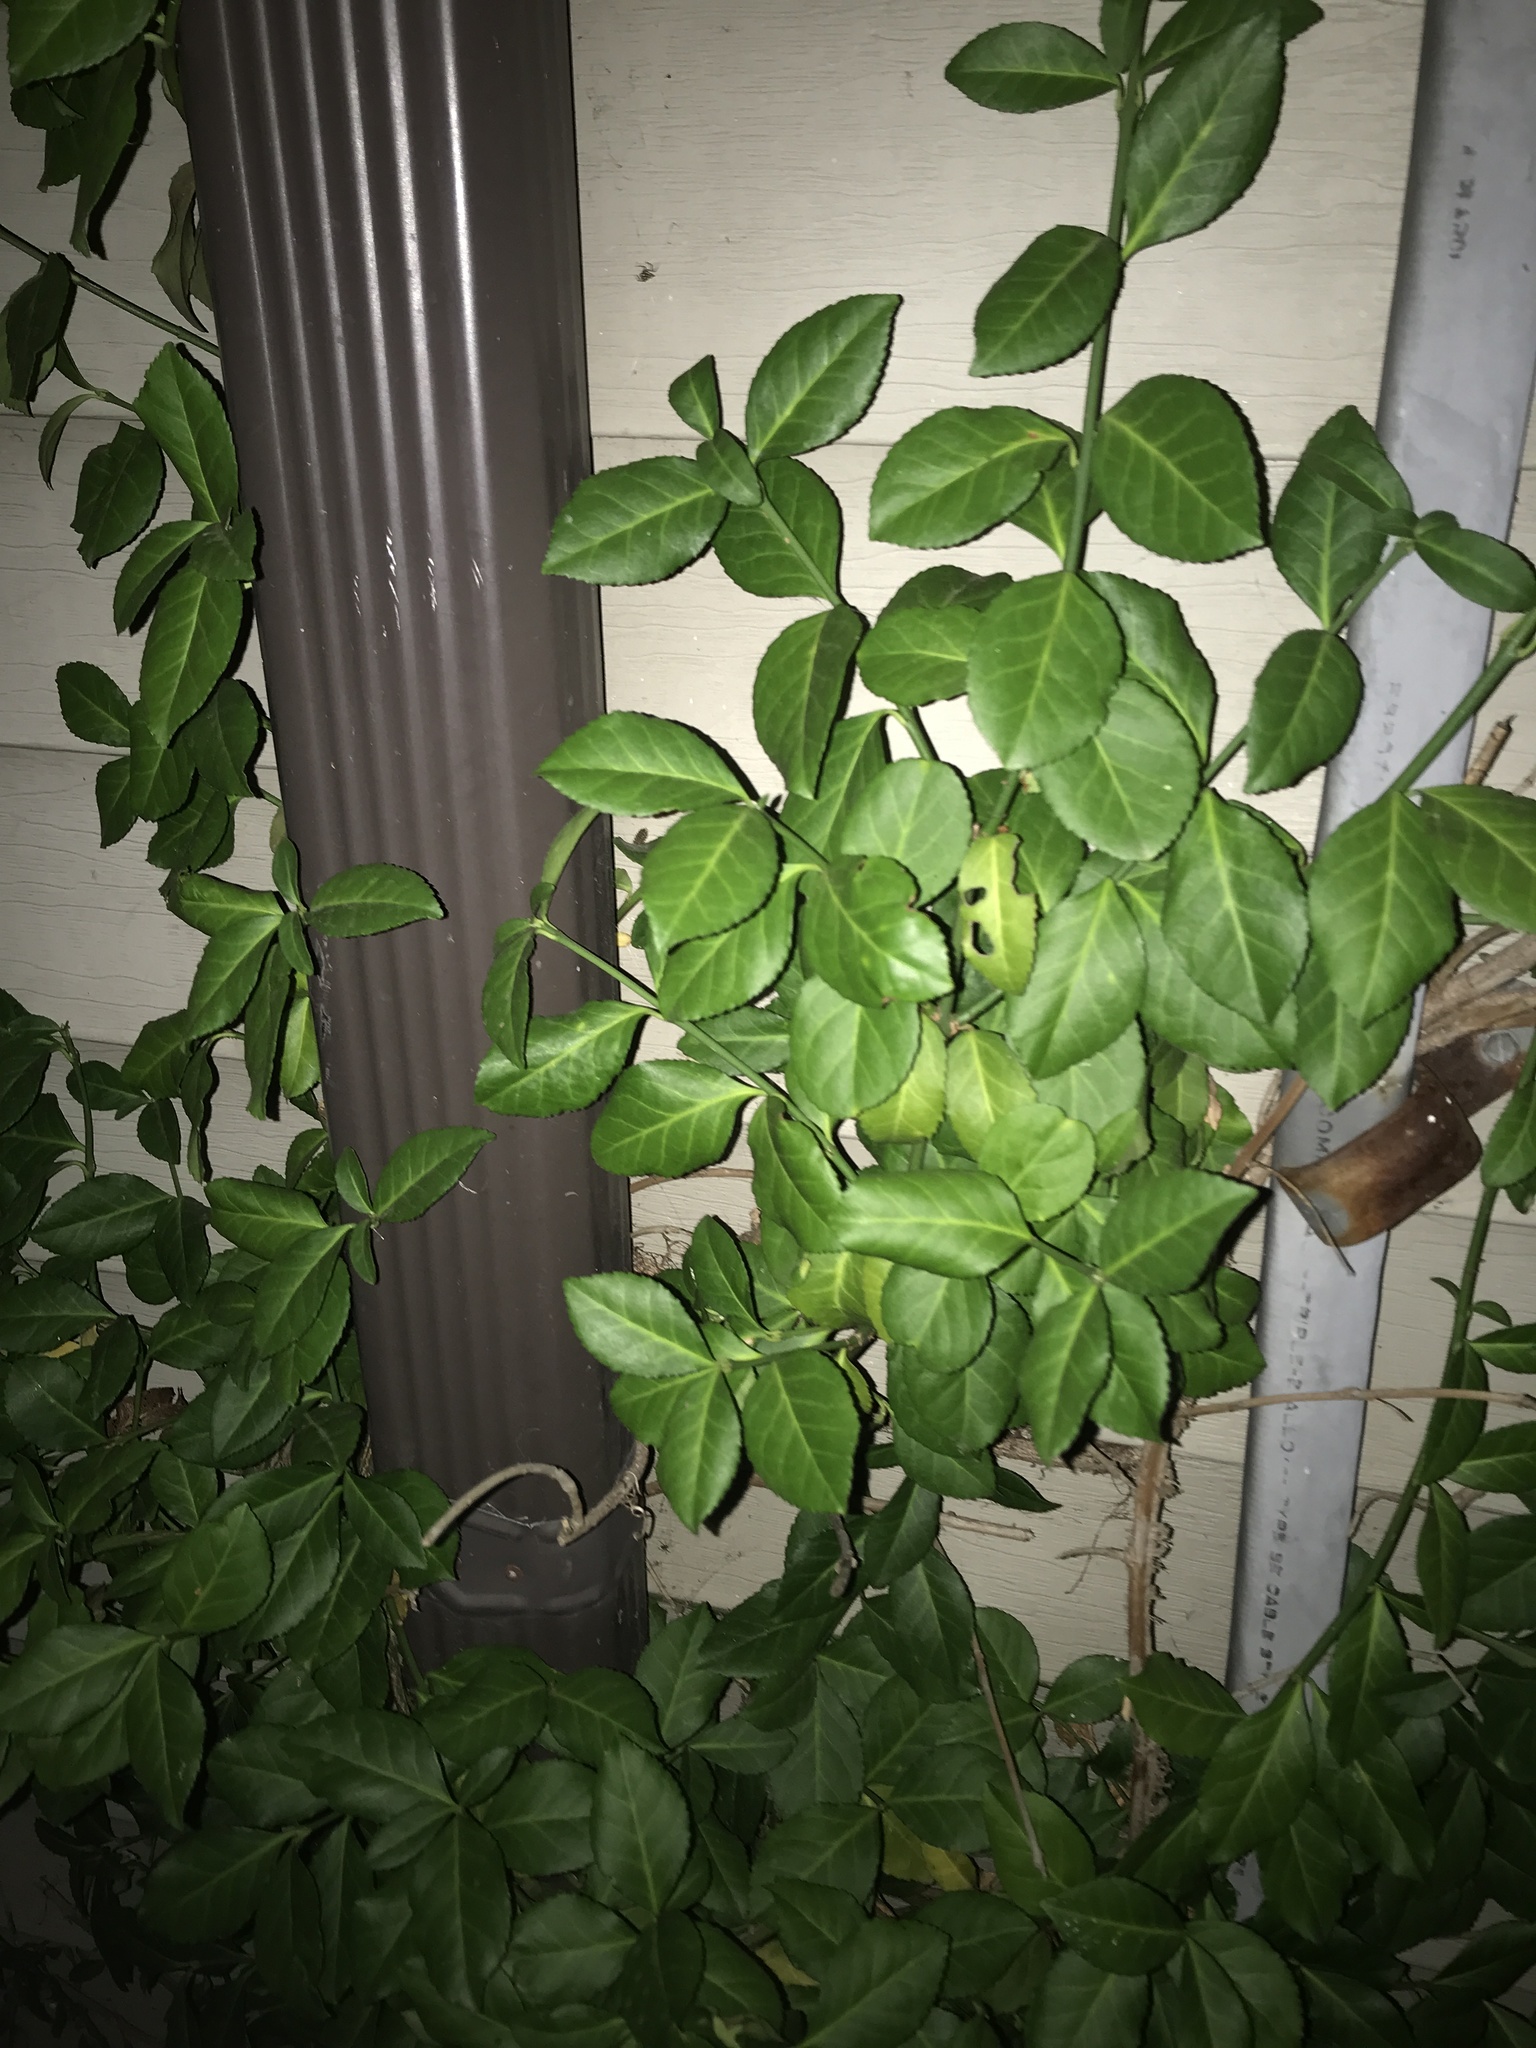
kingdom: Plantae
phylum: Tracheophyta
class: Magnoliopsida
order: Celastrales
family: Celastraceae
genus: Euonymus
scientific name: Euonymus fortunei
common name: Climbing euonymus
